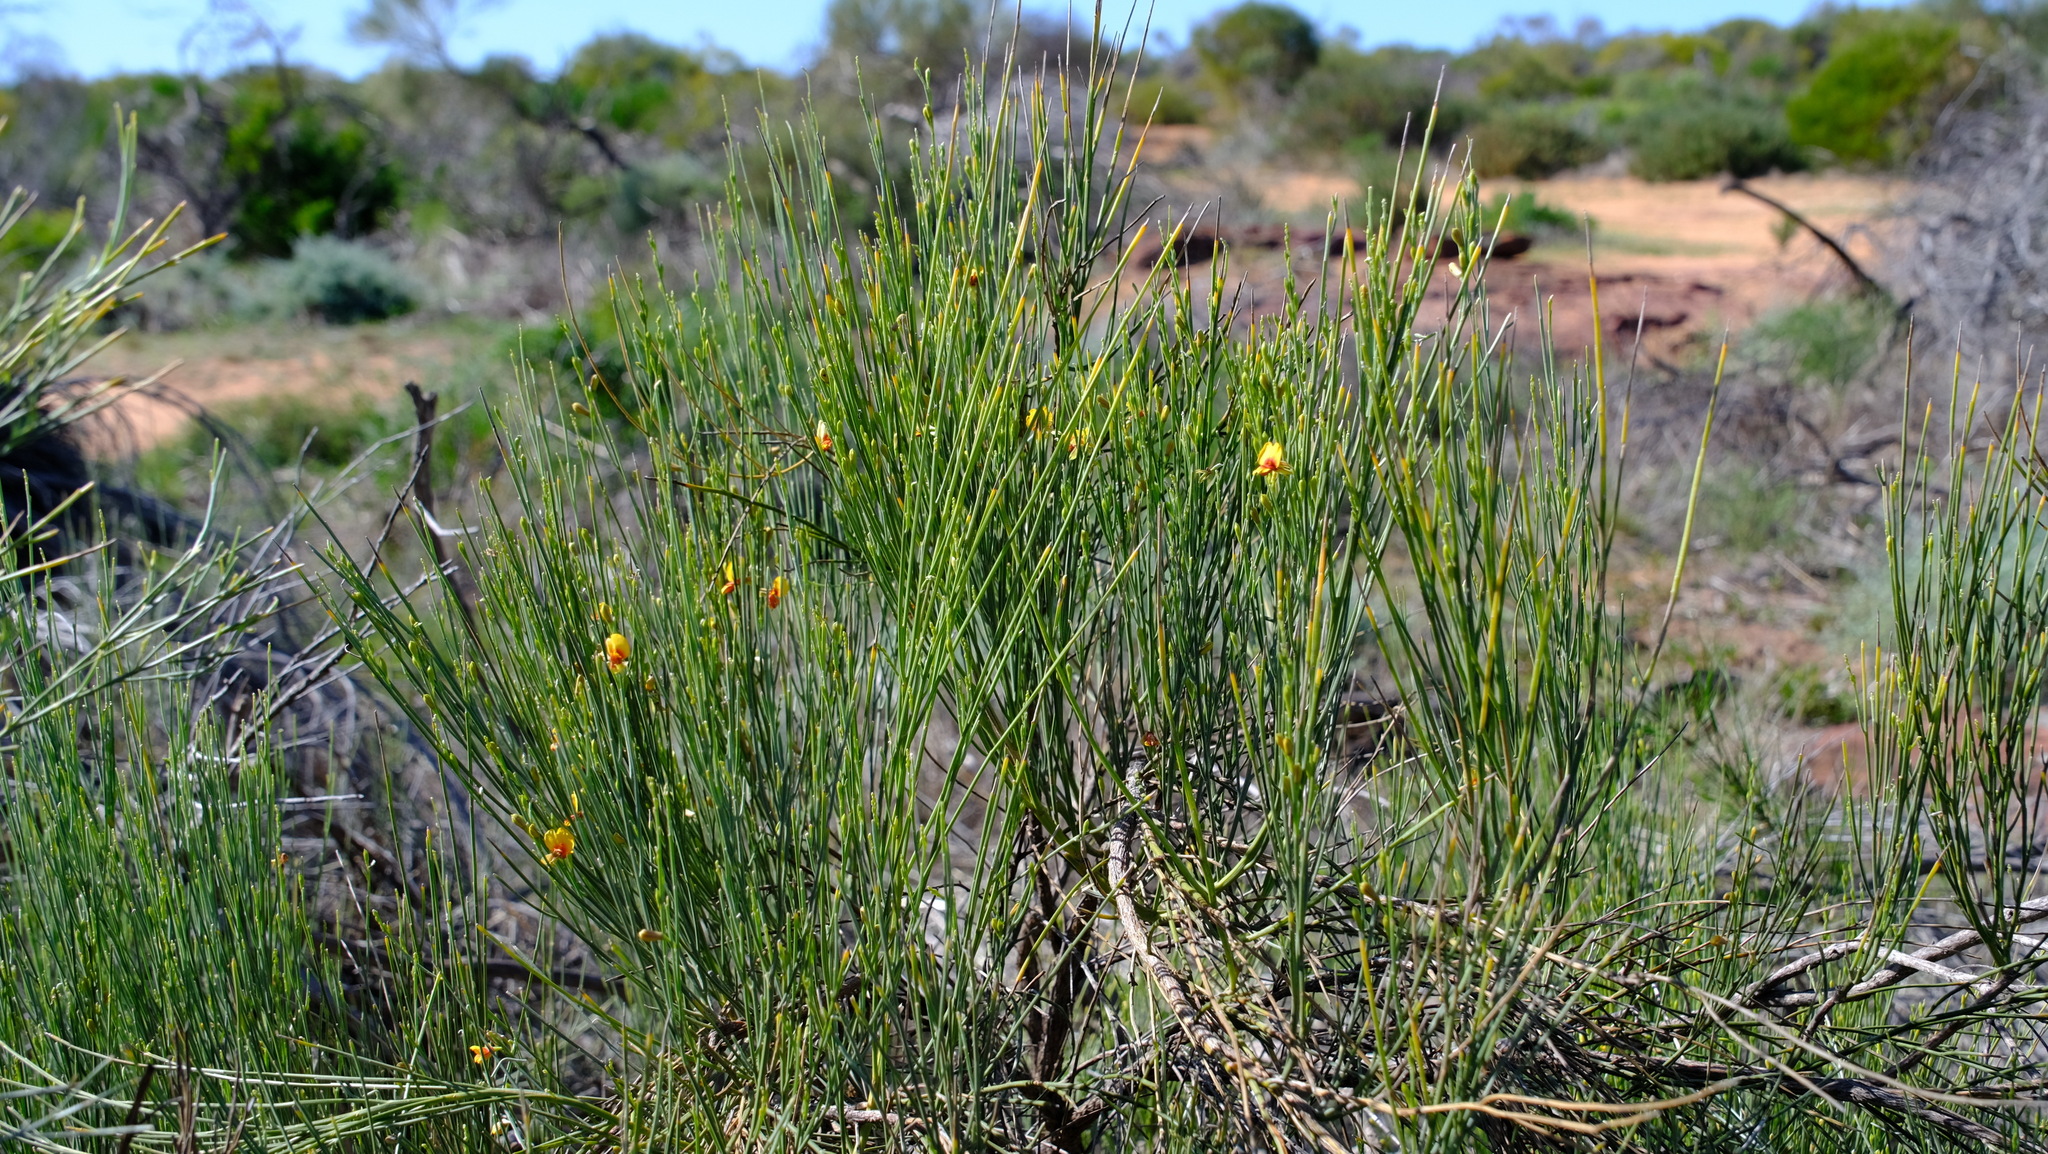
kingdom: Plantae
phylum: Tracheophyta
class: Magnoliopsida
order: Fabales
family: Fabaceae
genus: Jacksonia
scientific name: Jacksonia cupulifera
